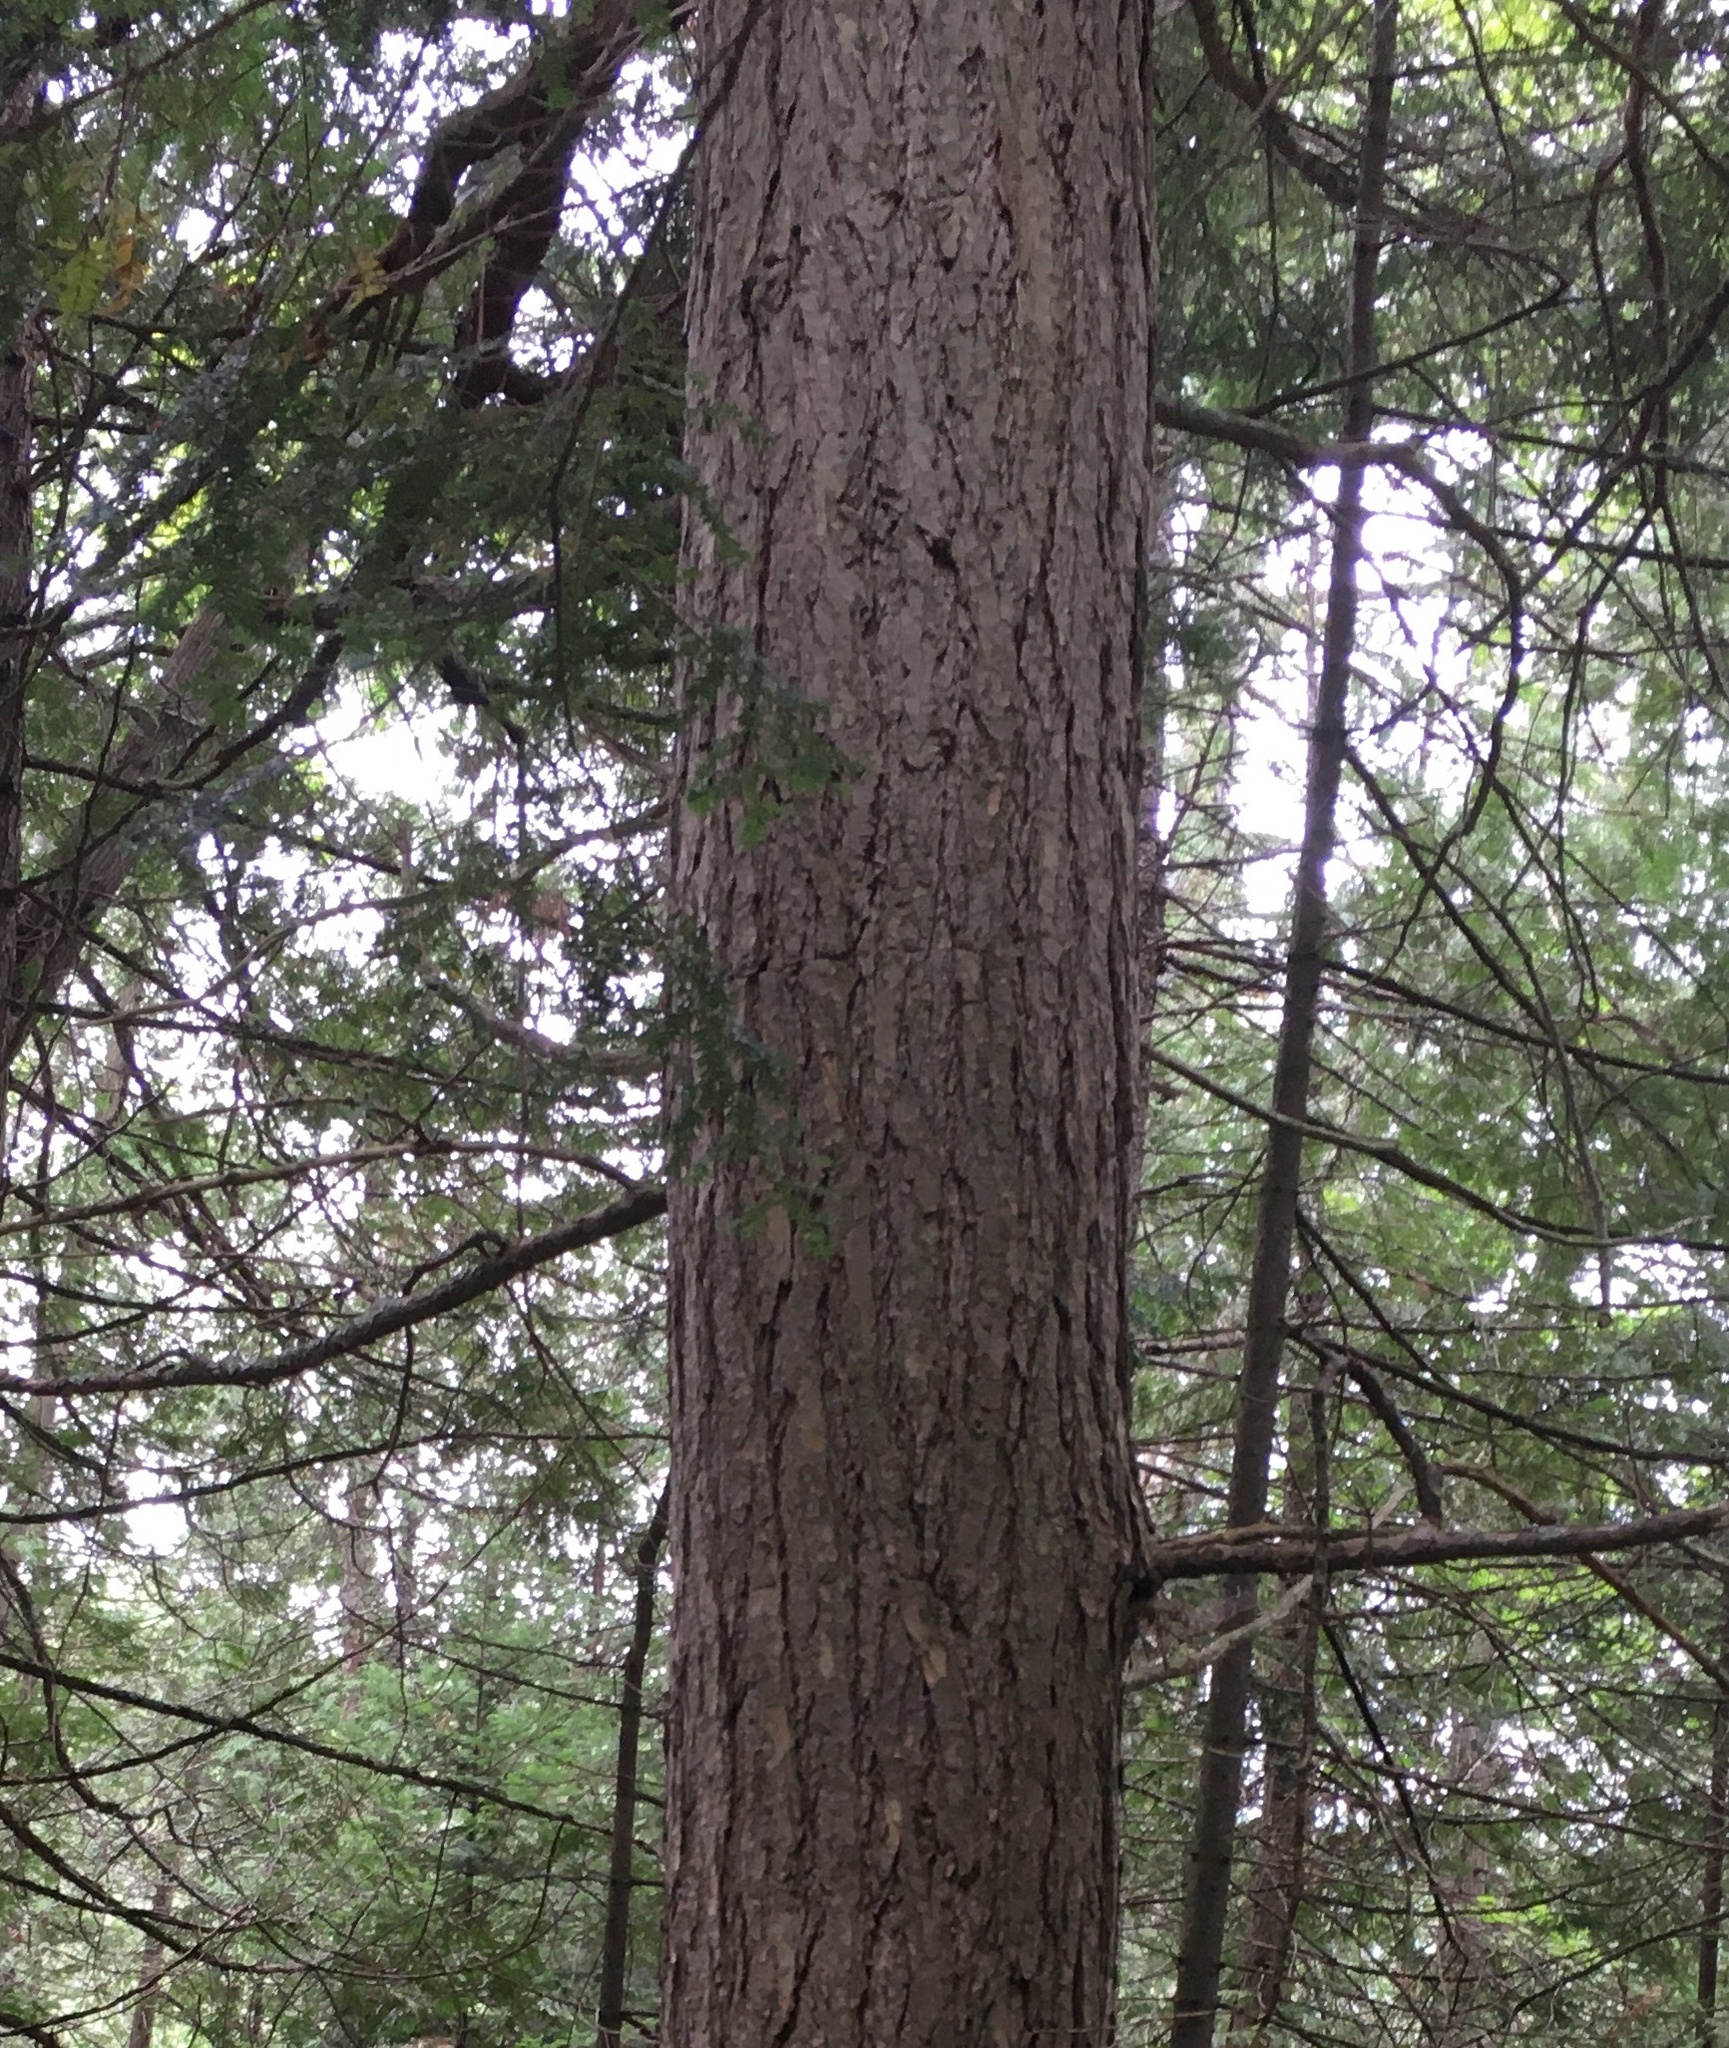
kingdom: Plantae
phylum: Tracheophyta
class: Pinopsida
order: Pinales
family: Pinaceae
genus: Tsuga
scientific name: Tsuga canadensis
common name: Eastern hemlock
